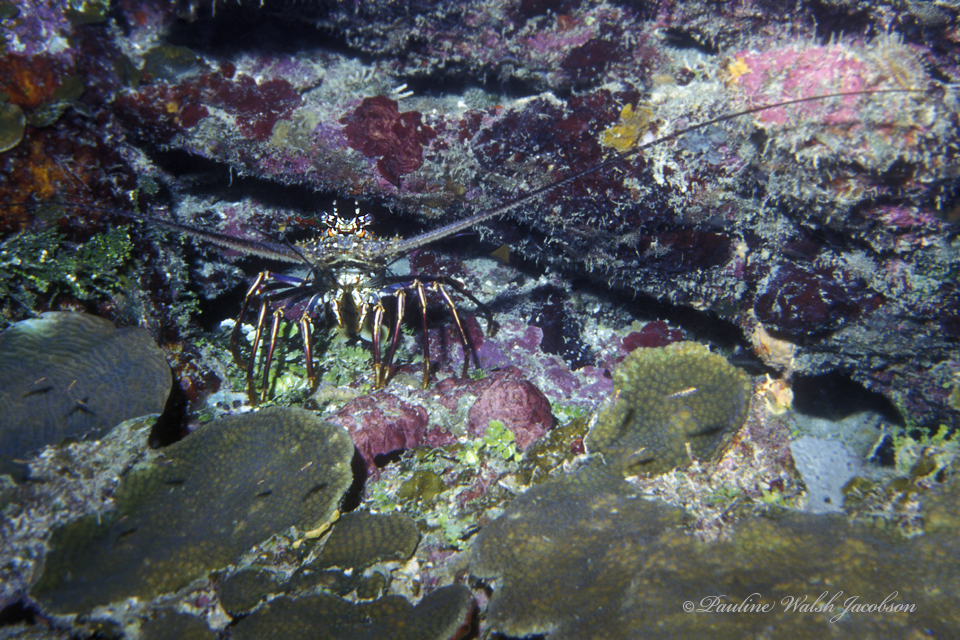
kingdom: Animalia
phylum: Arthropoda
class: Malacostraca
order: Decapoda
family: Palinuridae
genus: Panulirus
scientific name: Panulirus argus
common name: Caribbean spiny lobster
